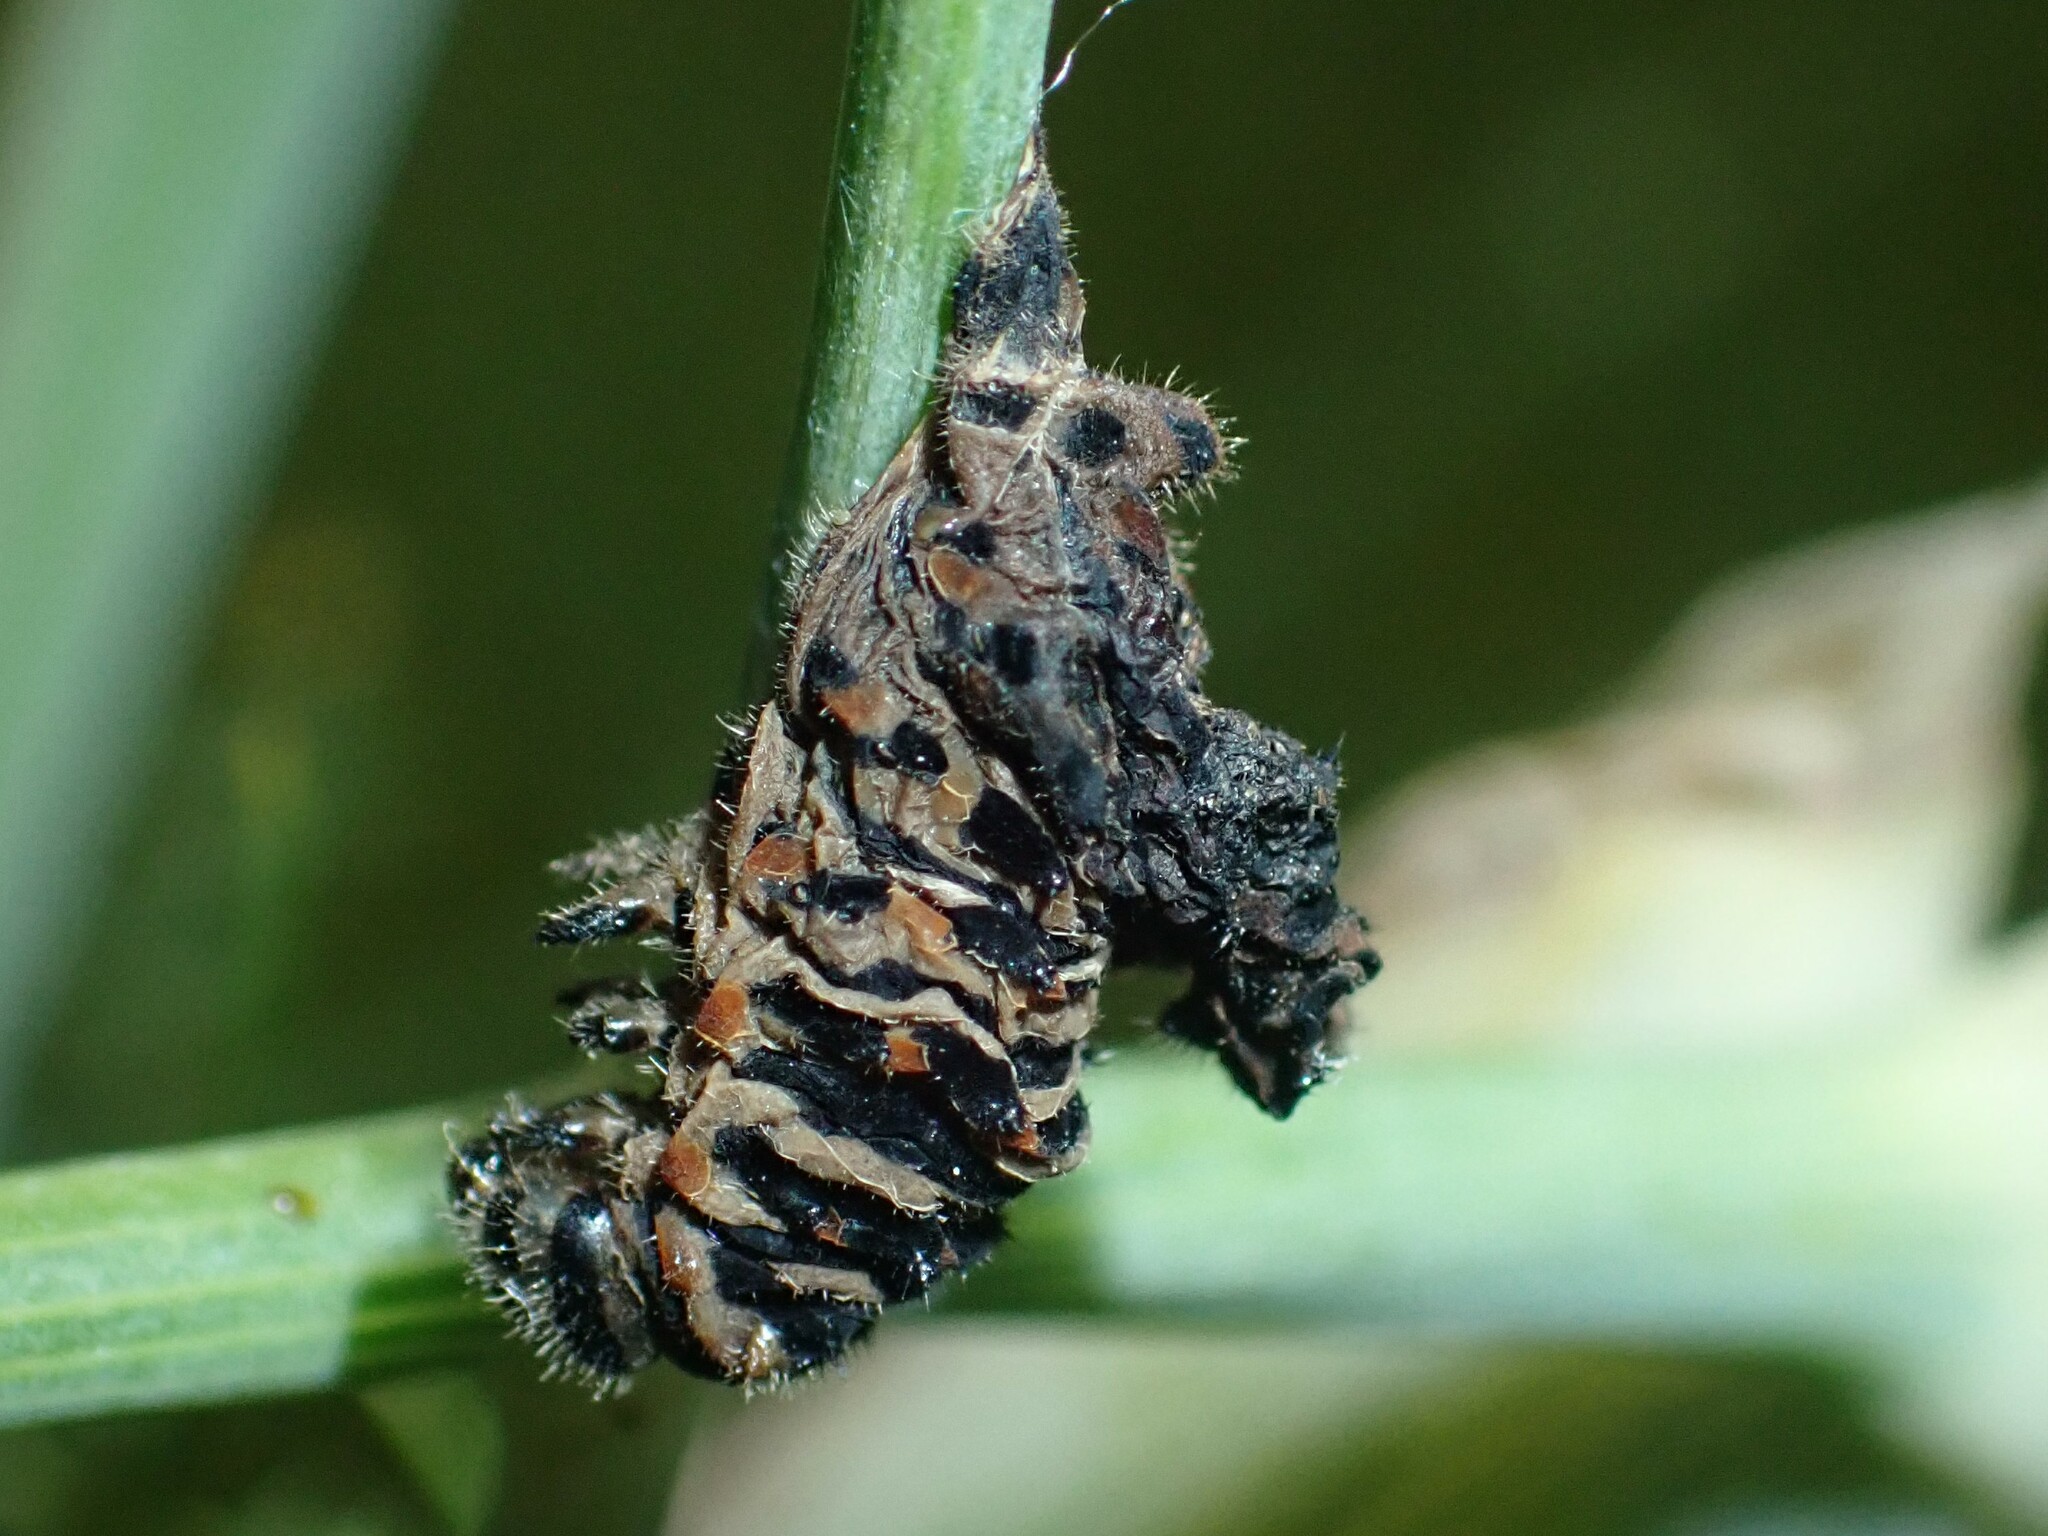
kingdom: Animalia
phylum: Arthropoda
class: Insecta
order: Lepidoptera
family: Papilionidae
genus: Papilio
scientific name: Papilio machaon
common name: Swallowtail
